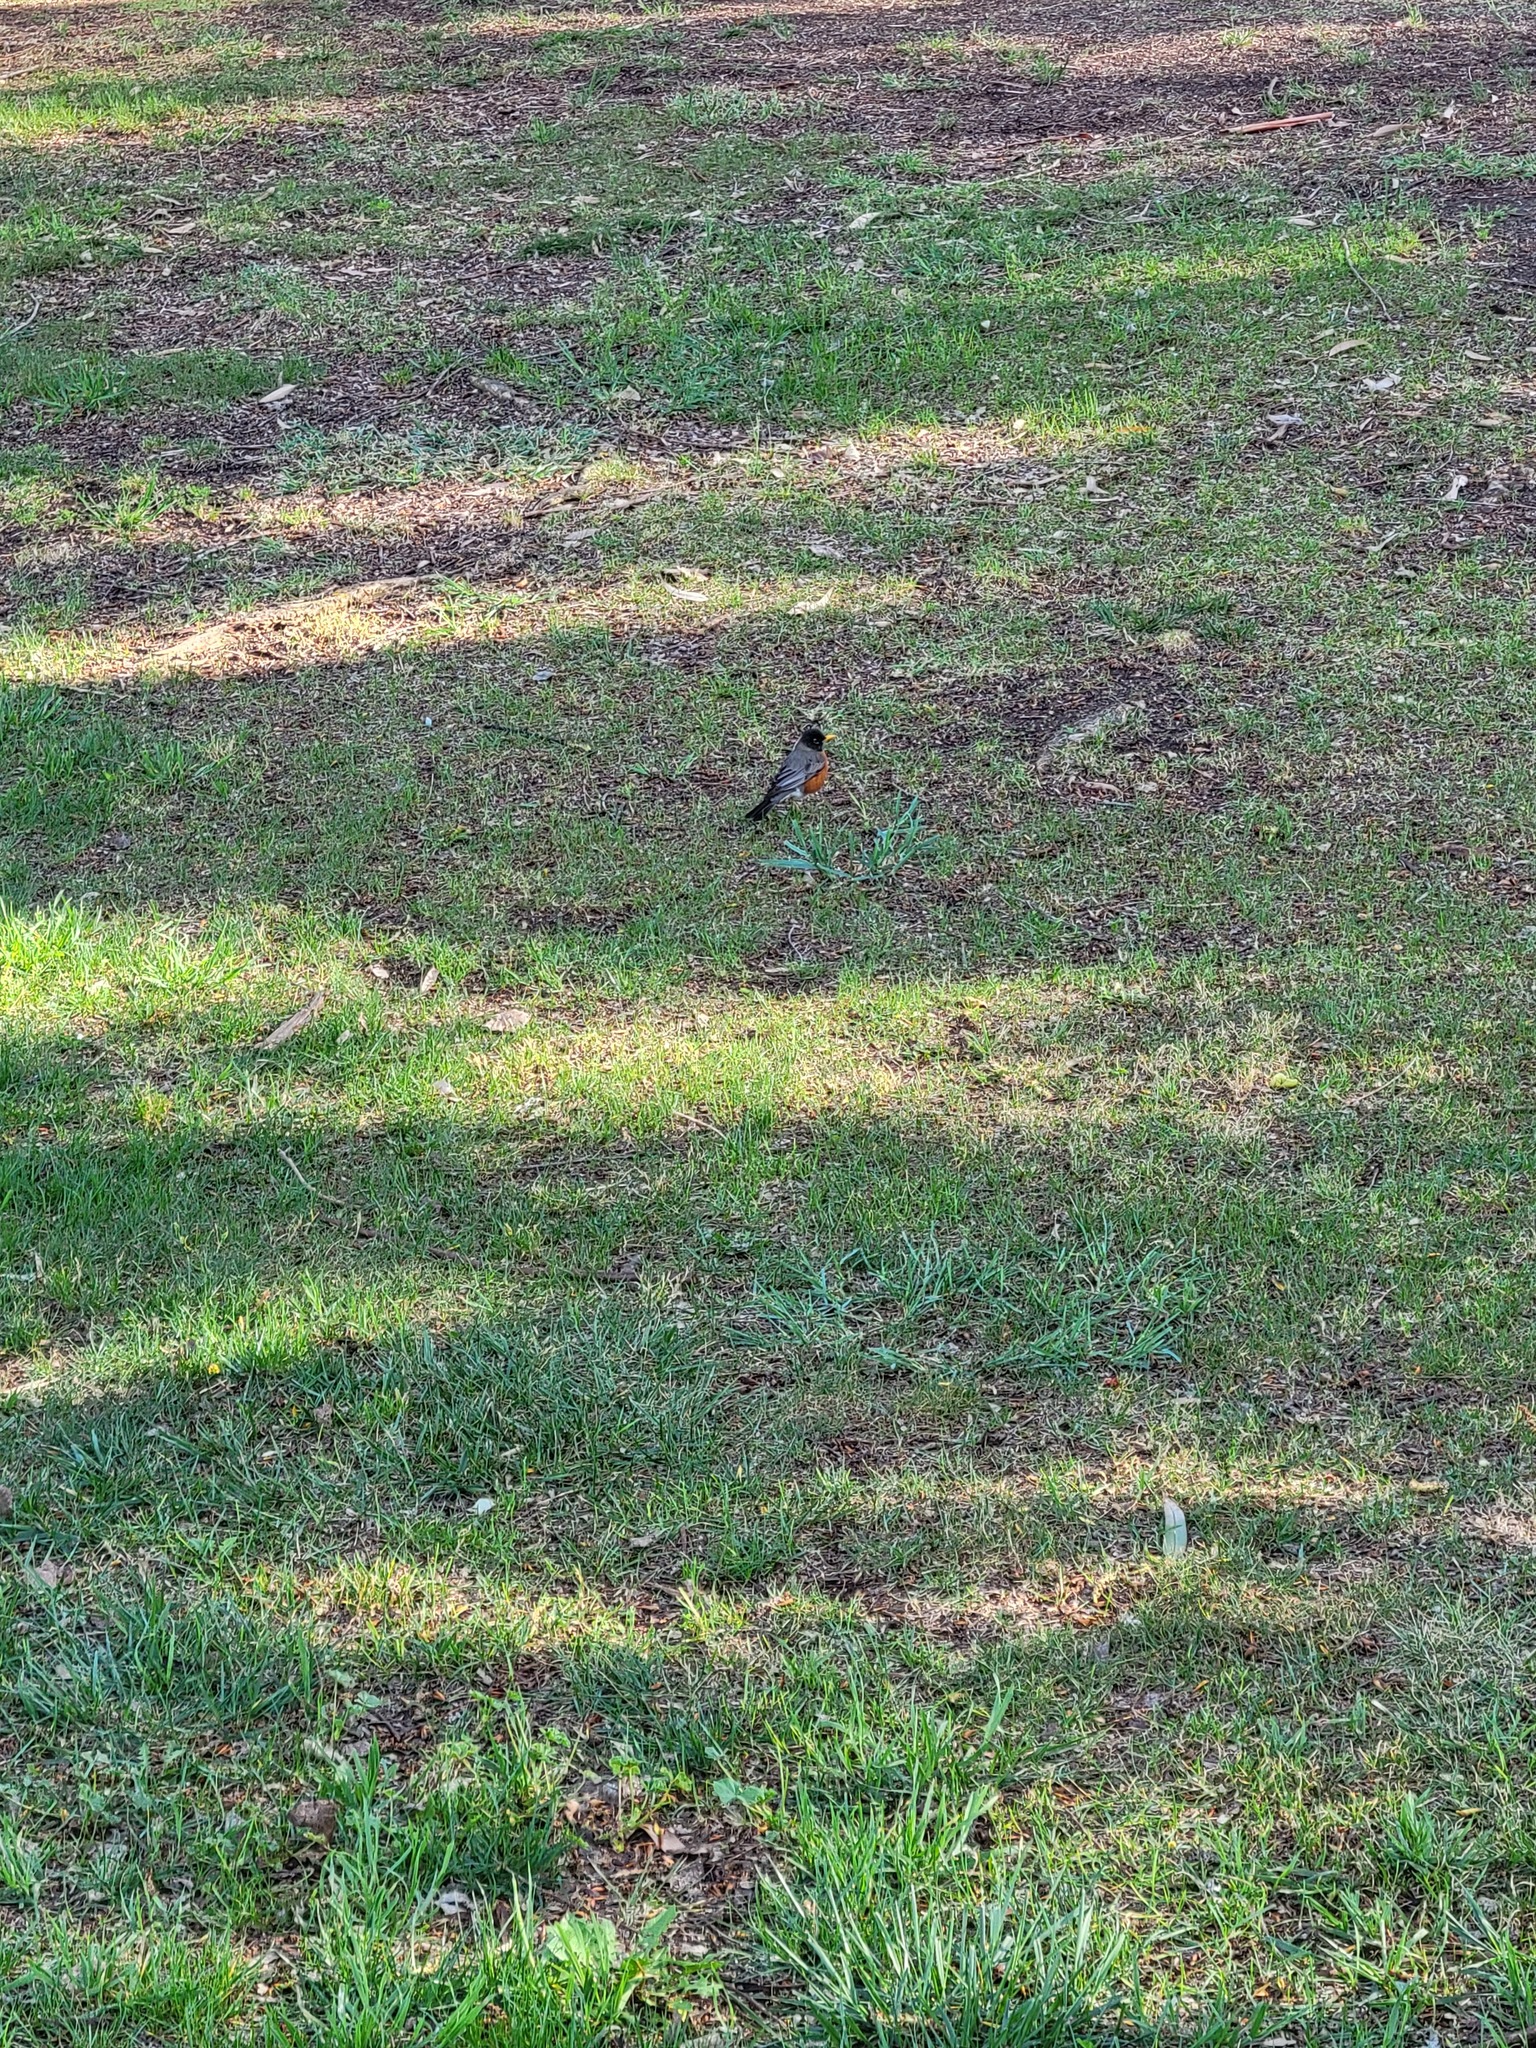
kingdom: Animalia
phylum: Chordata
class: Aves
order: Passeriformes
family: Turdidae
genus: Turdus
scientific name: Turdus migratorius
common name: American robin
